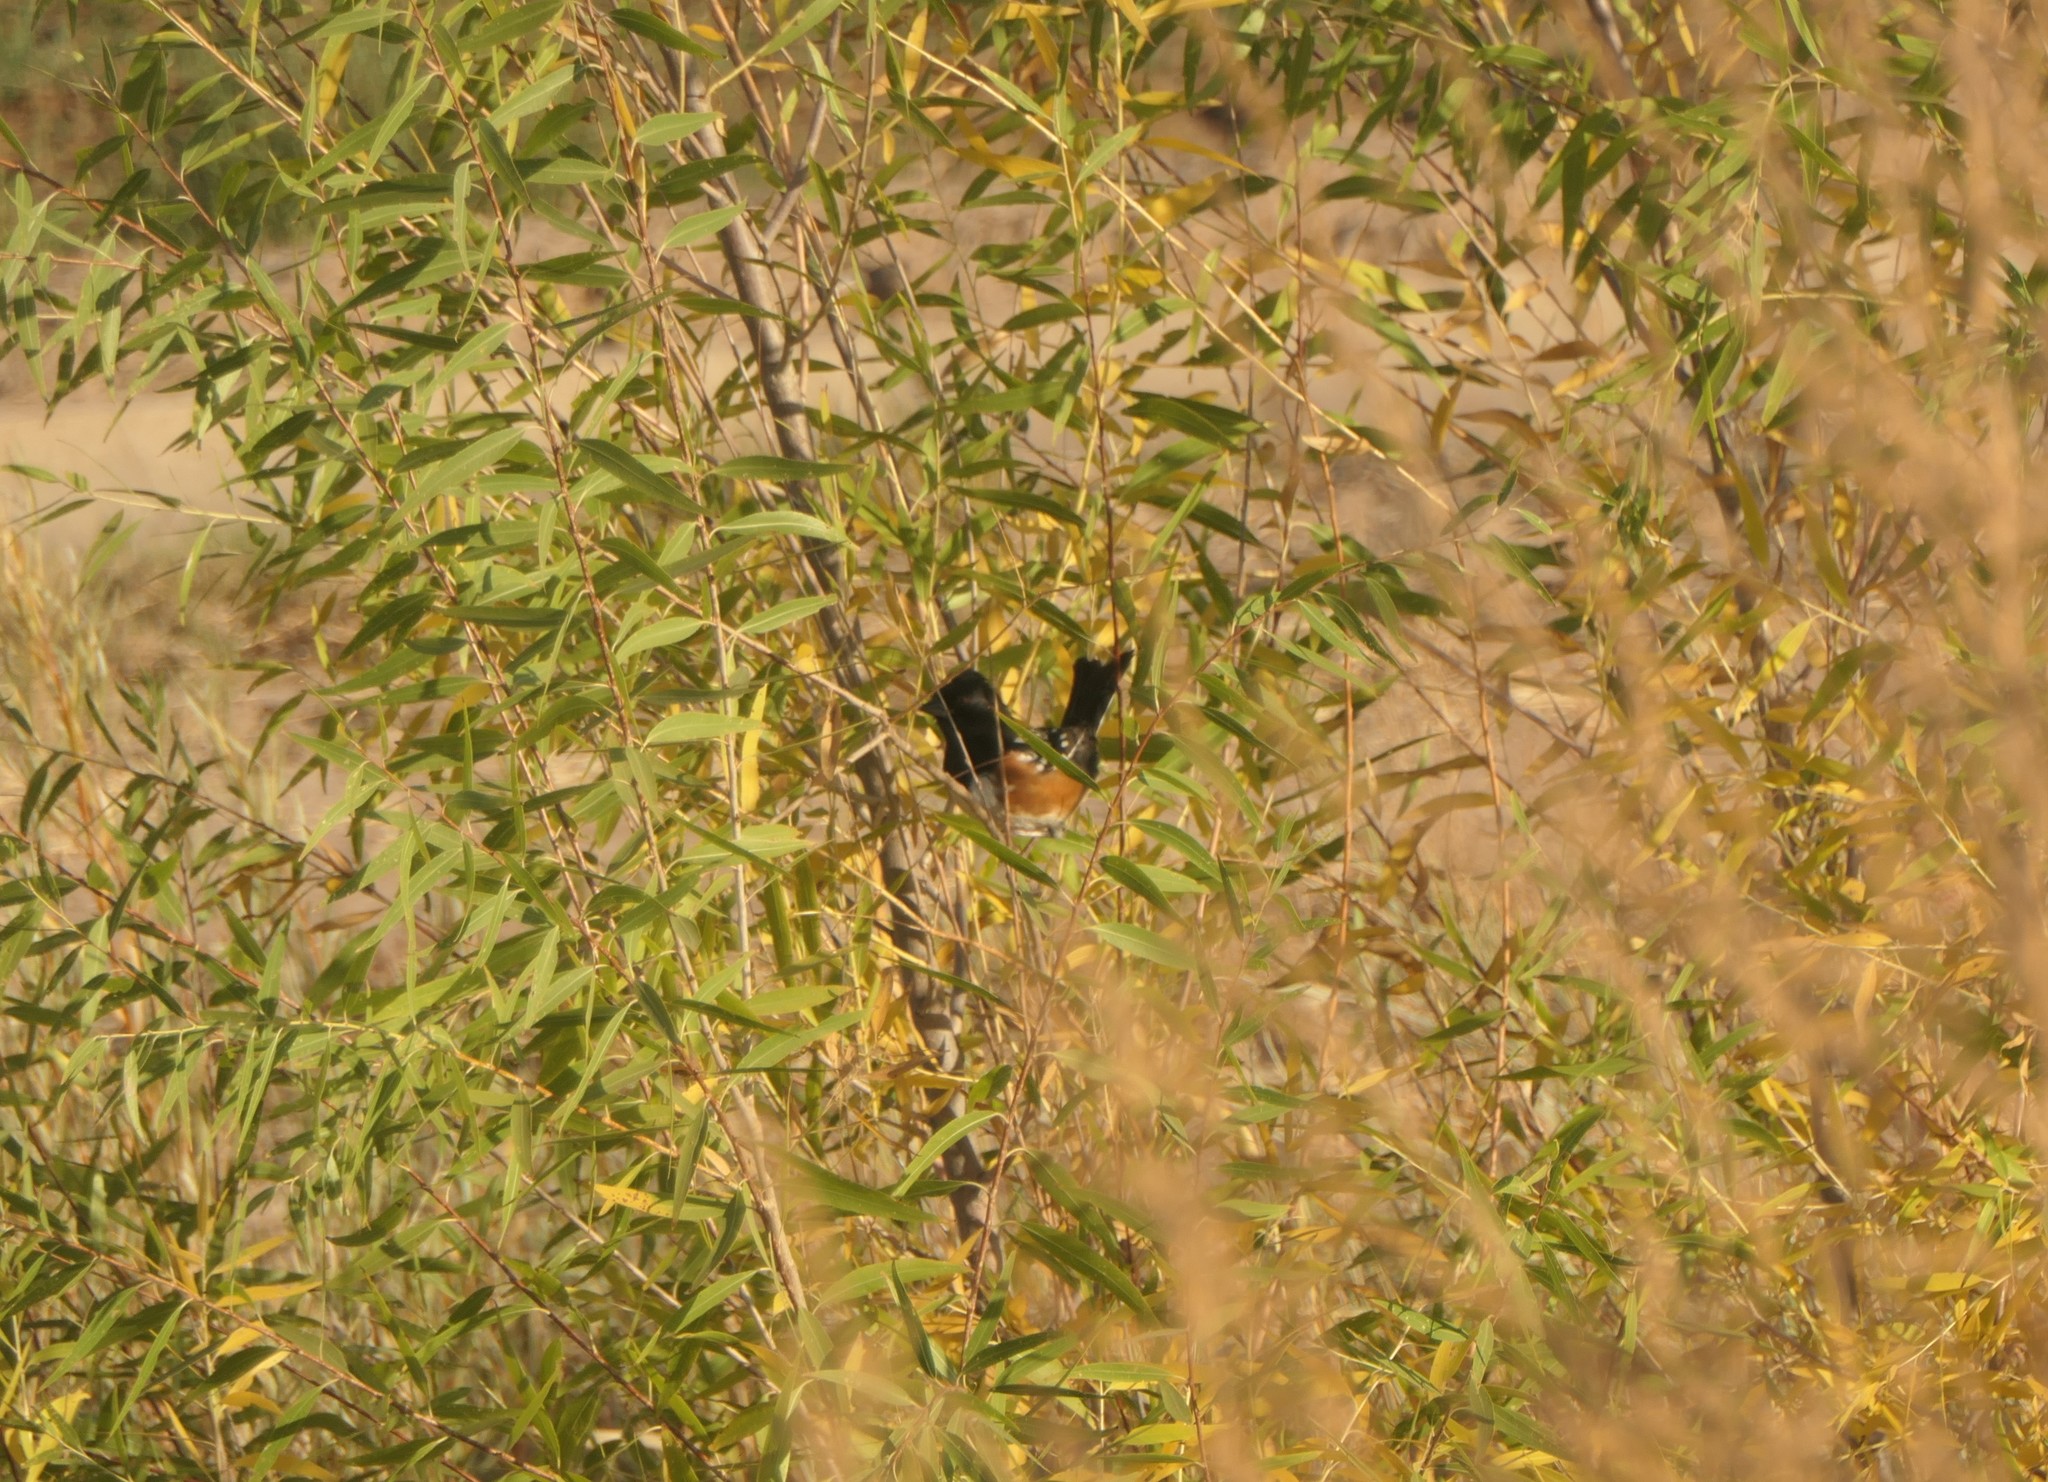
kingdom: Animalia
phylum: Chordata
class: Aves
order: Passeriformes
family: Passerellidae
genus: Pipilo
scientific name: Pipilo maculatus
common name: Spotted towhee
